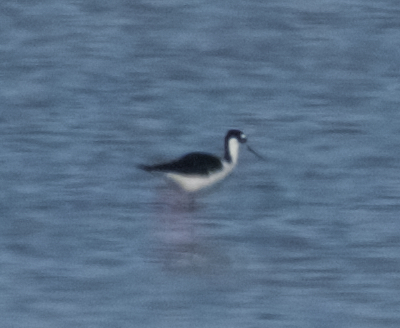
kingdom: Animalia
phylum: Chordata
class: Aves
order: Charadriiformes
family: Recurvirostridae
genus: Himantopus
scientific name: Himantopus mexicanus
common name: Black-necked stilt
